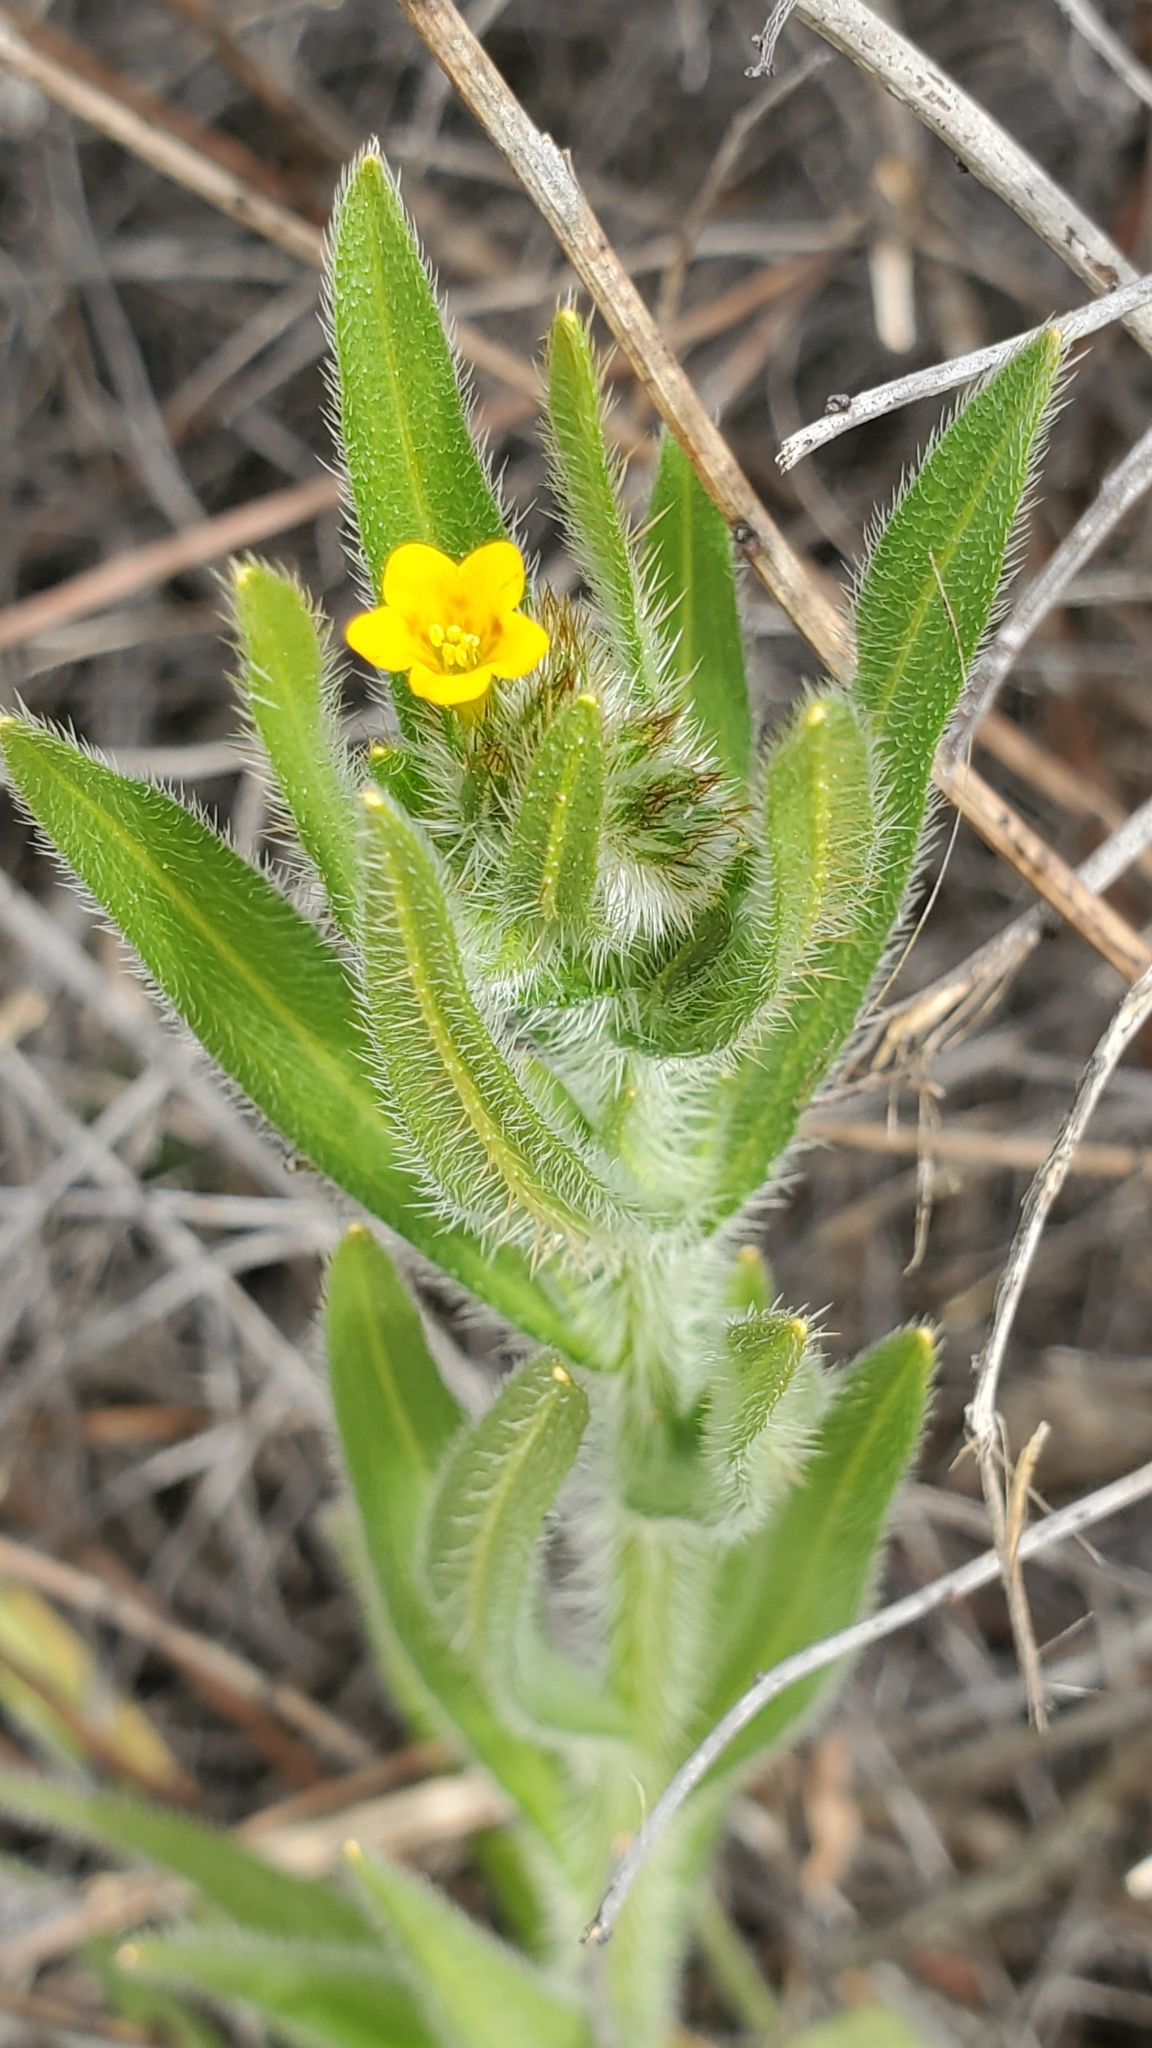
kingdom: Plantae
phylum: Tracheophyta
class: Magnoliopsida
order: Boraginales
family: Boraginaceae
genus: Amsinckia
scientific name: Amsinckia menziesii
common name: Menzies' fiddleneck
